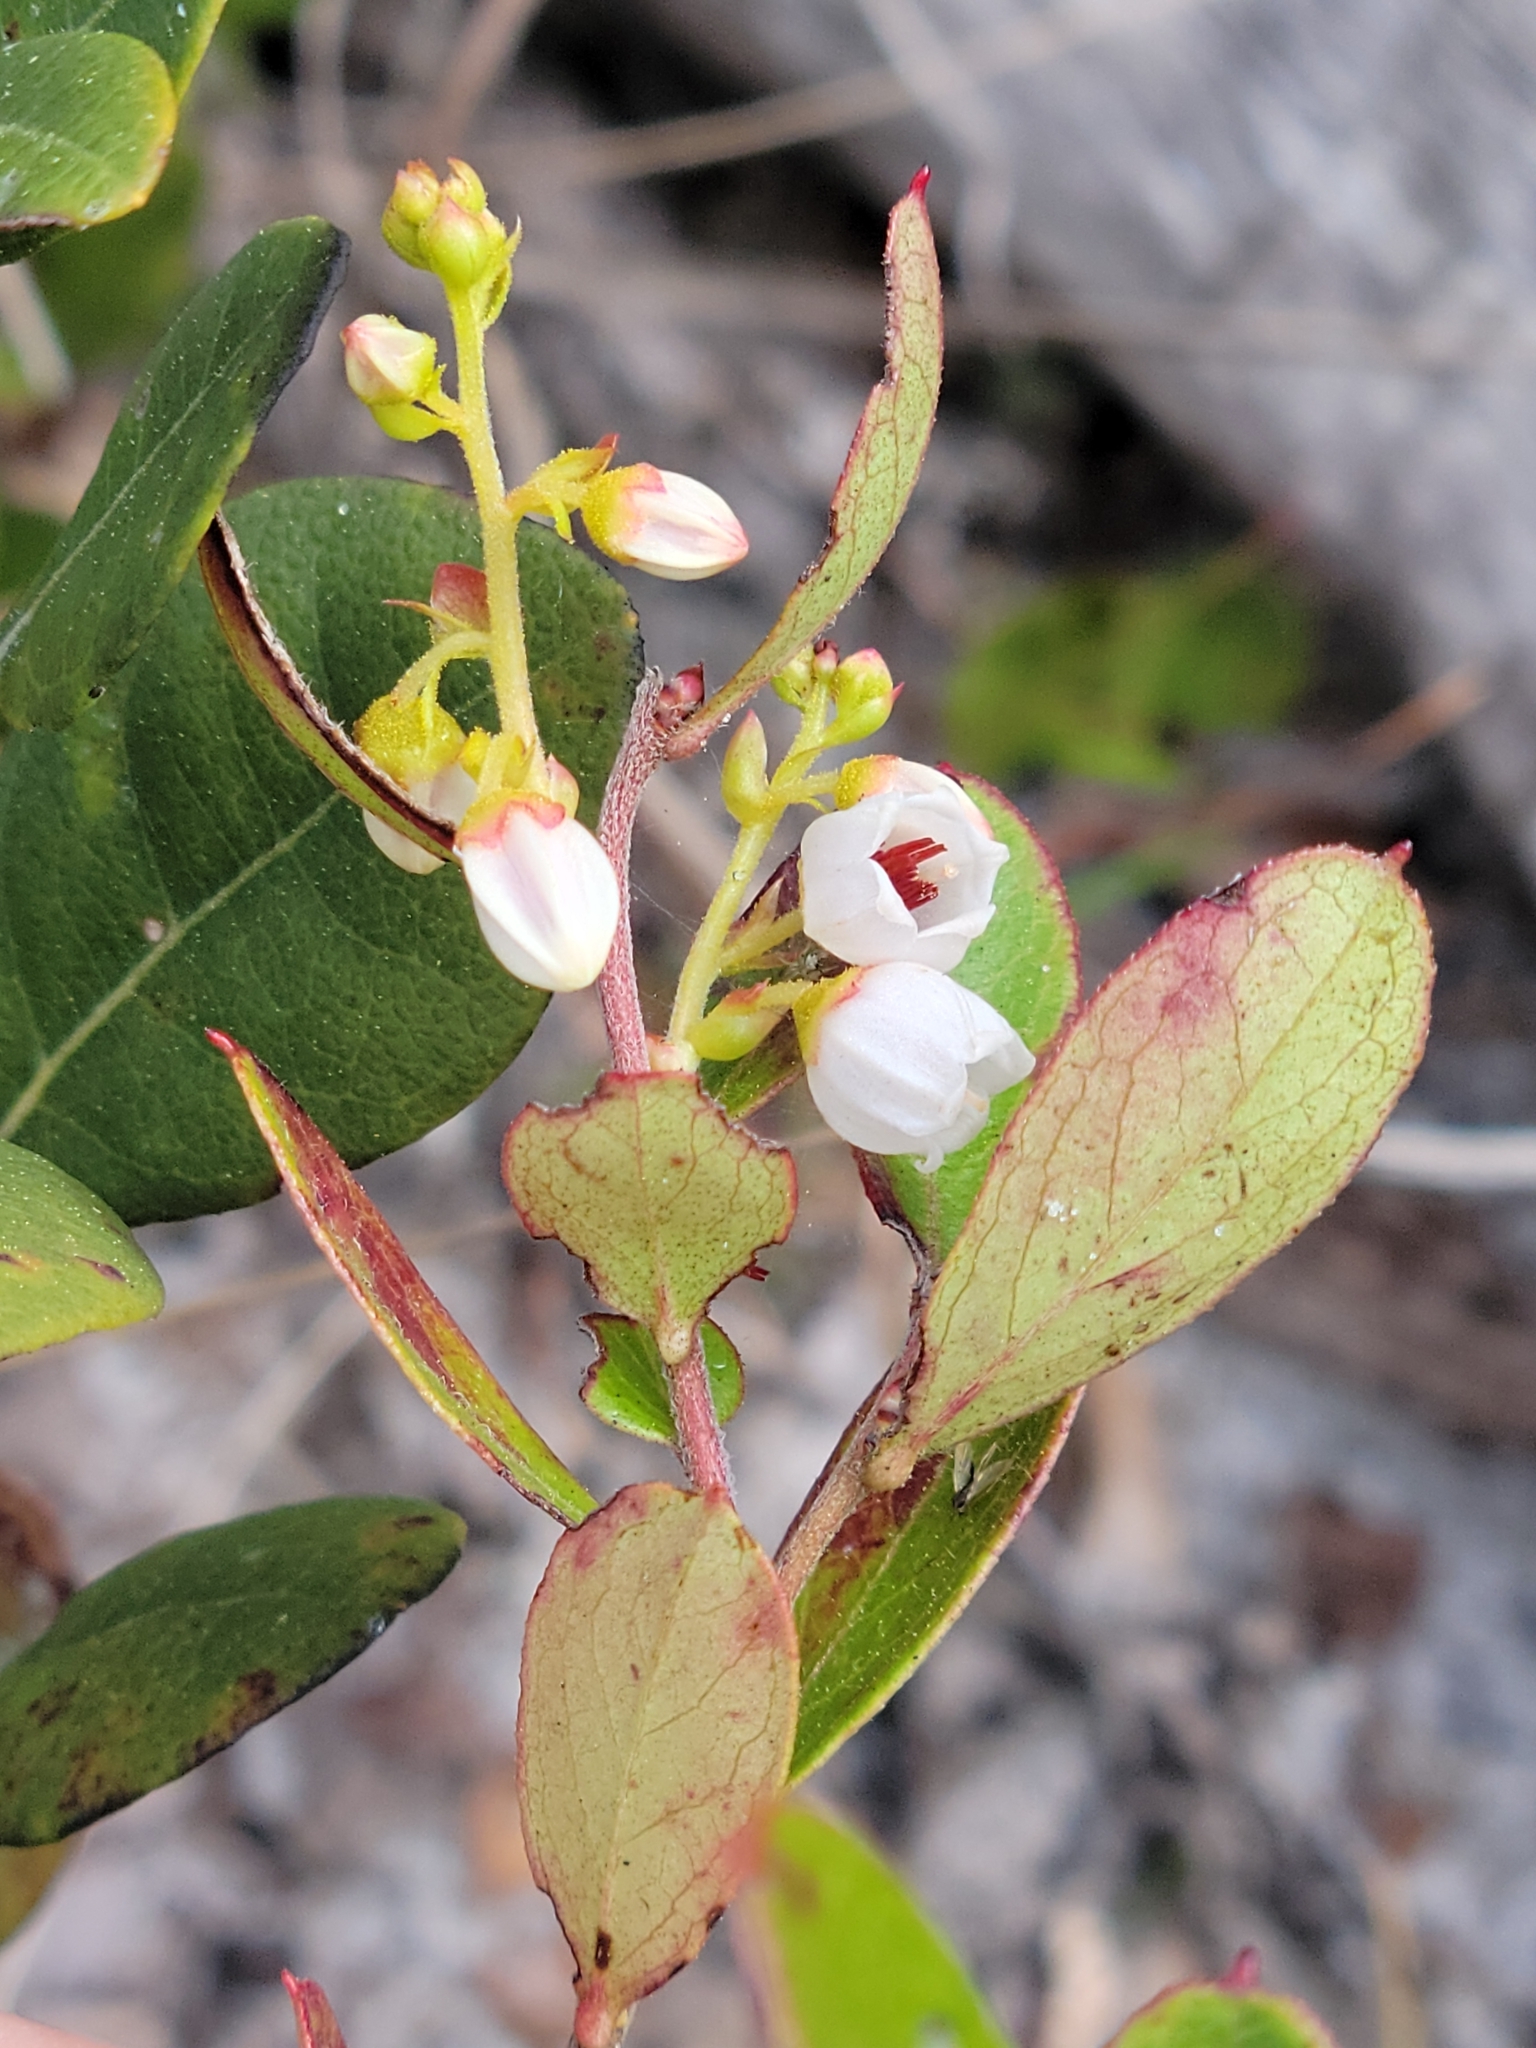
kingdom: Plantae
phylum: Tracheophyta
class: Magnoliopsida
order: Ericales
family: Ericaceae
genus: Gaylussacia
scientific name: Gaylussacia dumosa
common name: Dwarf huckleberry
